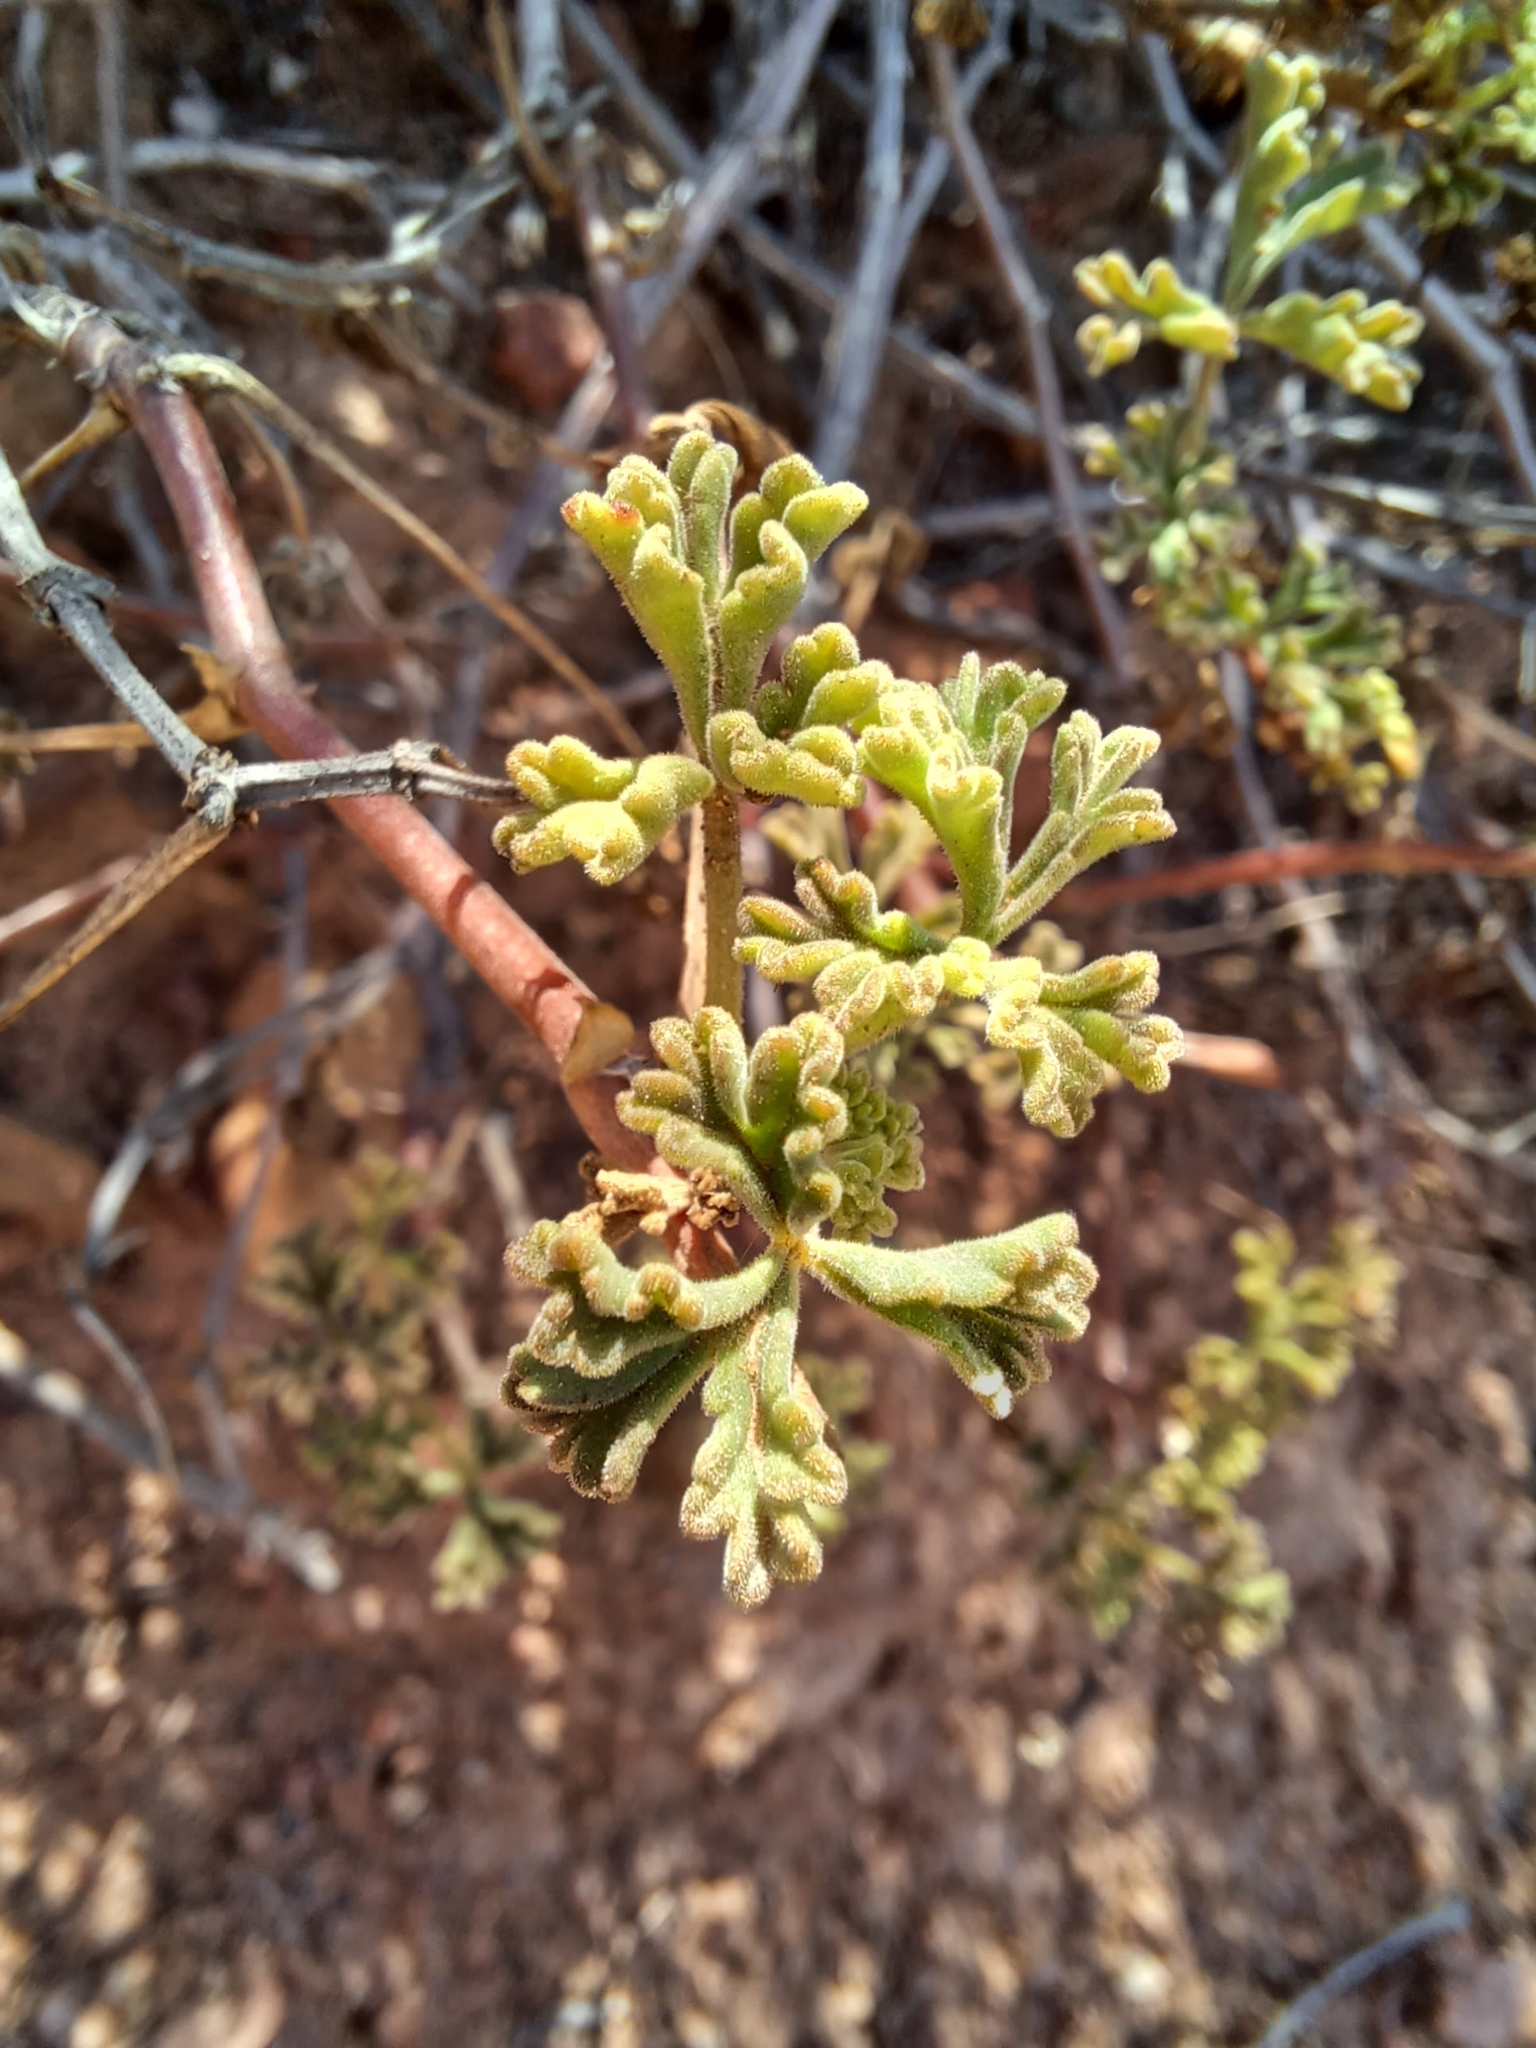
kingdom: Plantae
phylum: Tracheophyta
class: Magnoliopsida
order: Geraniales
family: Geraniaceae
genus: Pelargonium
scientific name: Pelargonium trifidum
